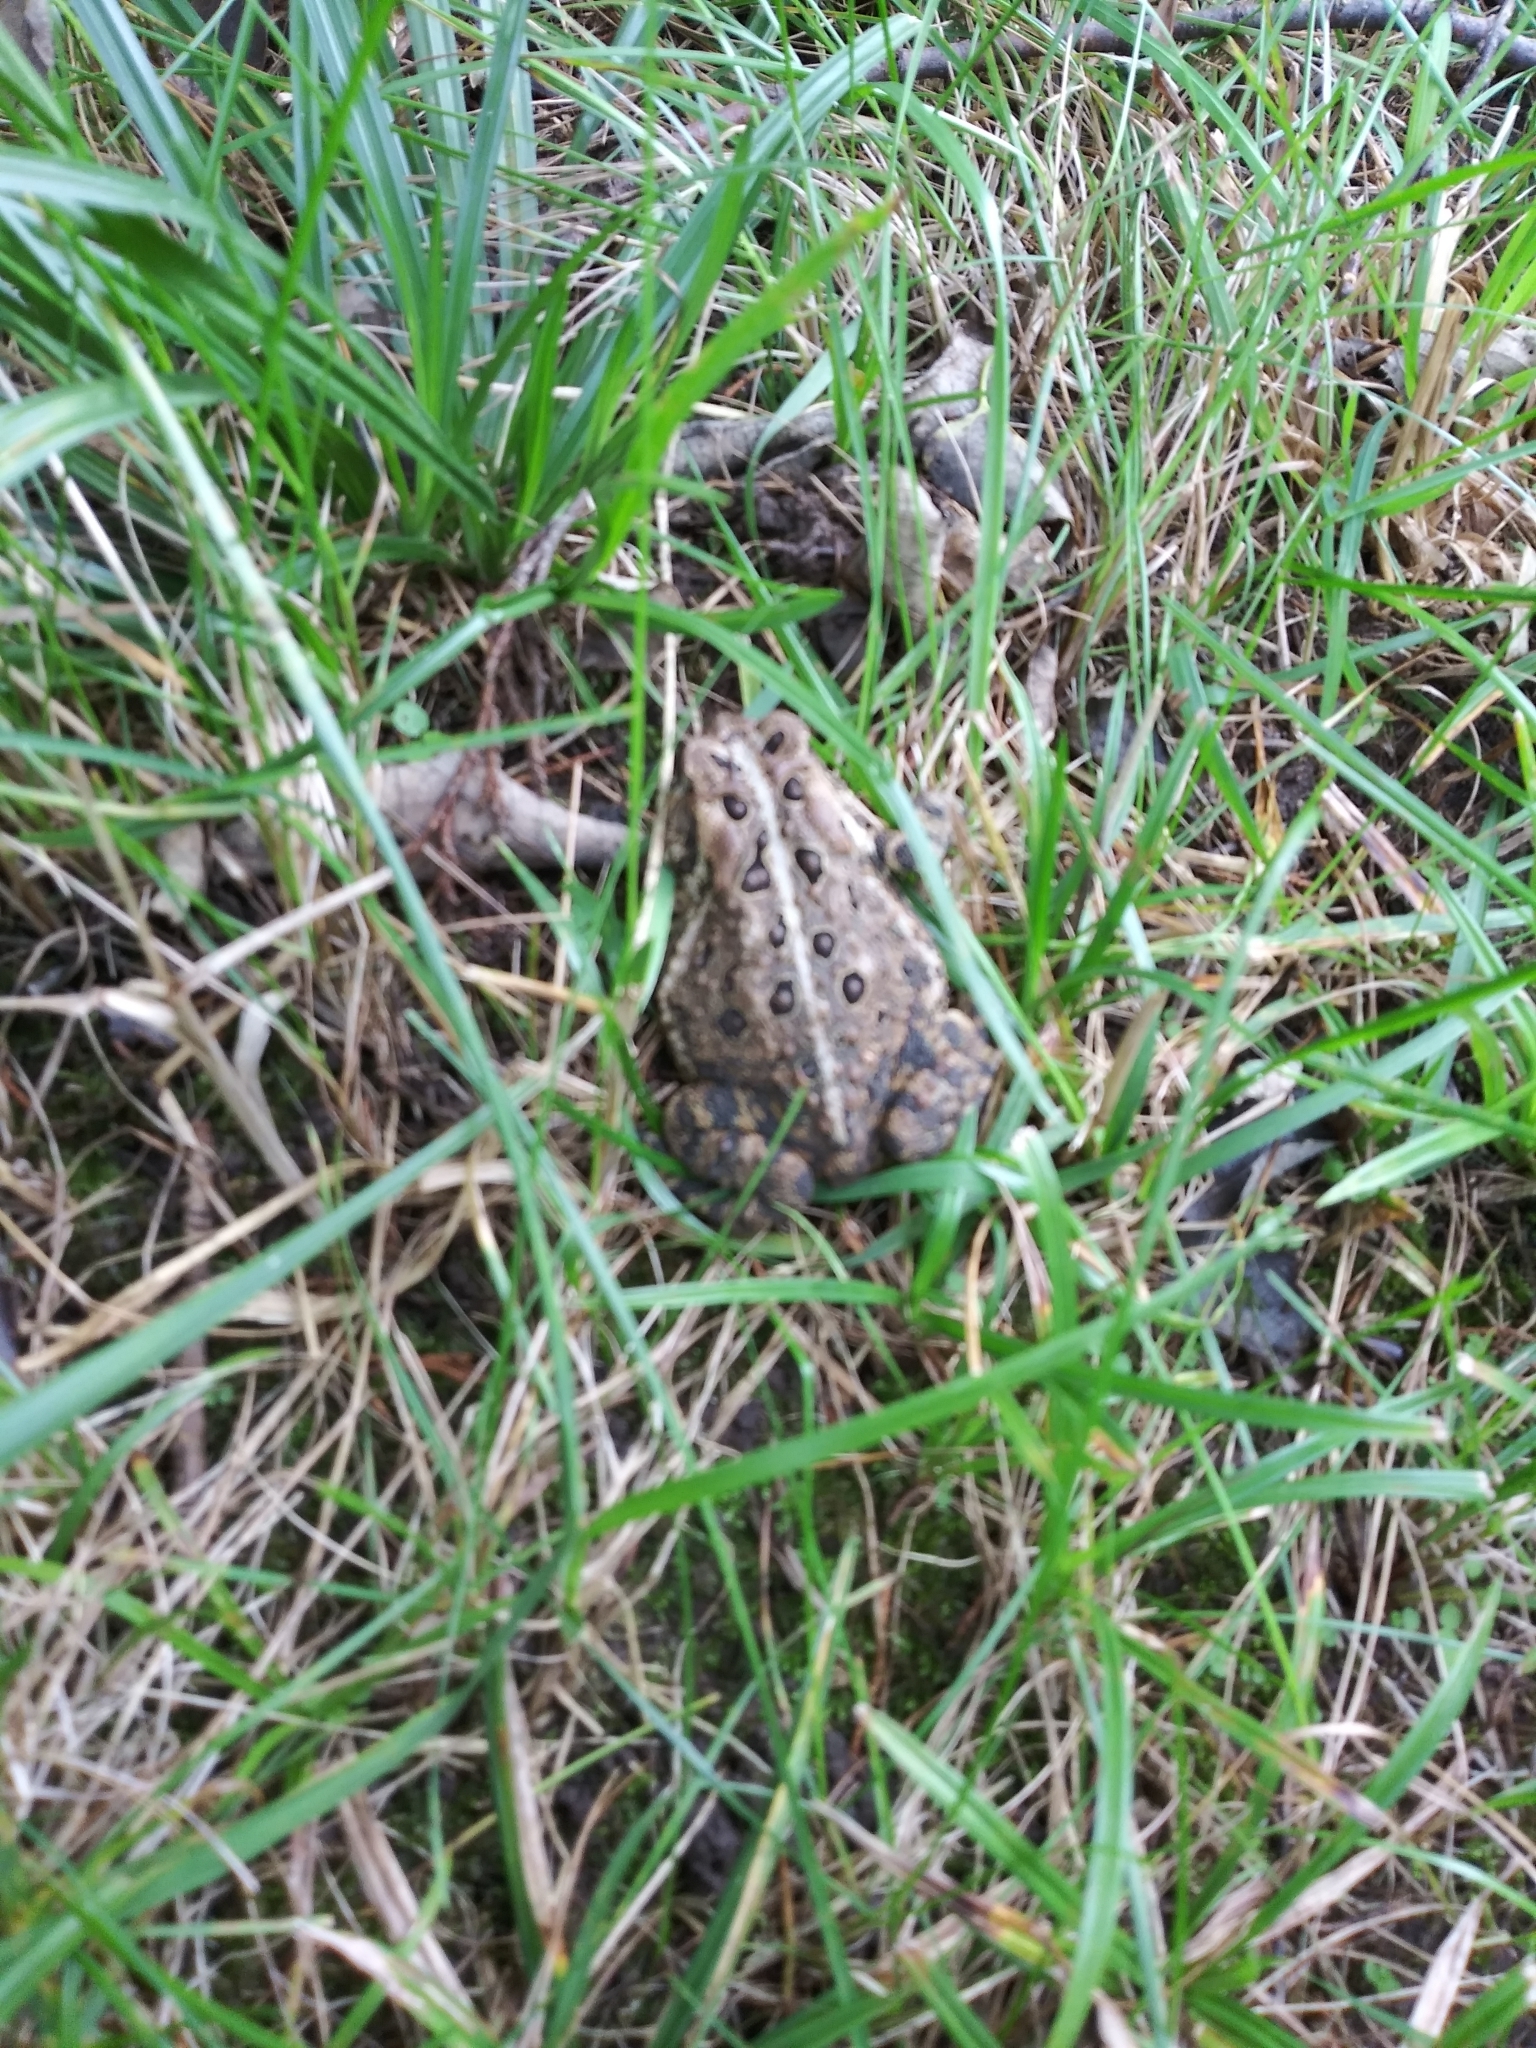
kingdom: Animalia
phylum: Chordata
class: Amphibia
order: Anura
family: Bufonidae
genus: Anaxyrus
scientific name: Anaxyrus americanus
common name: American toad
